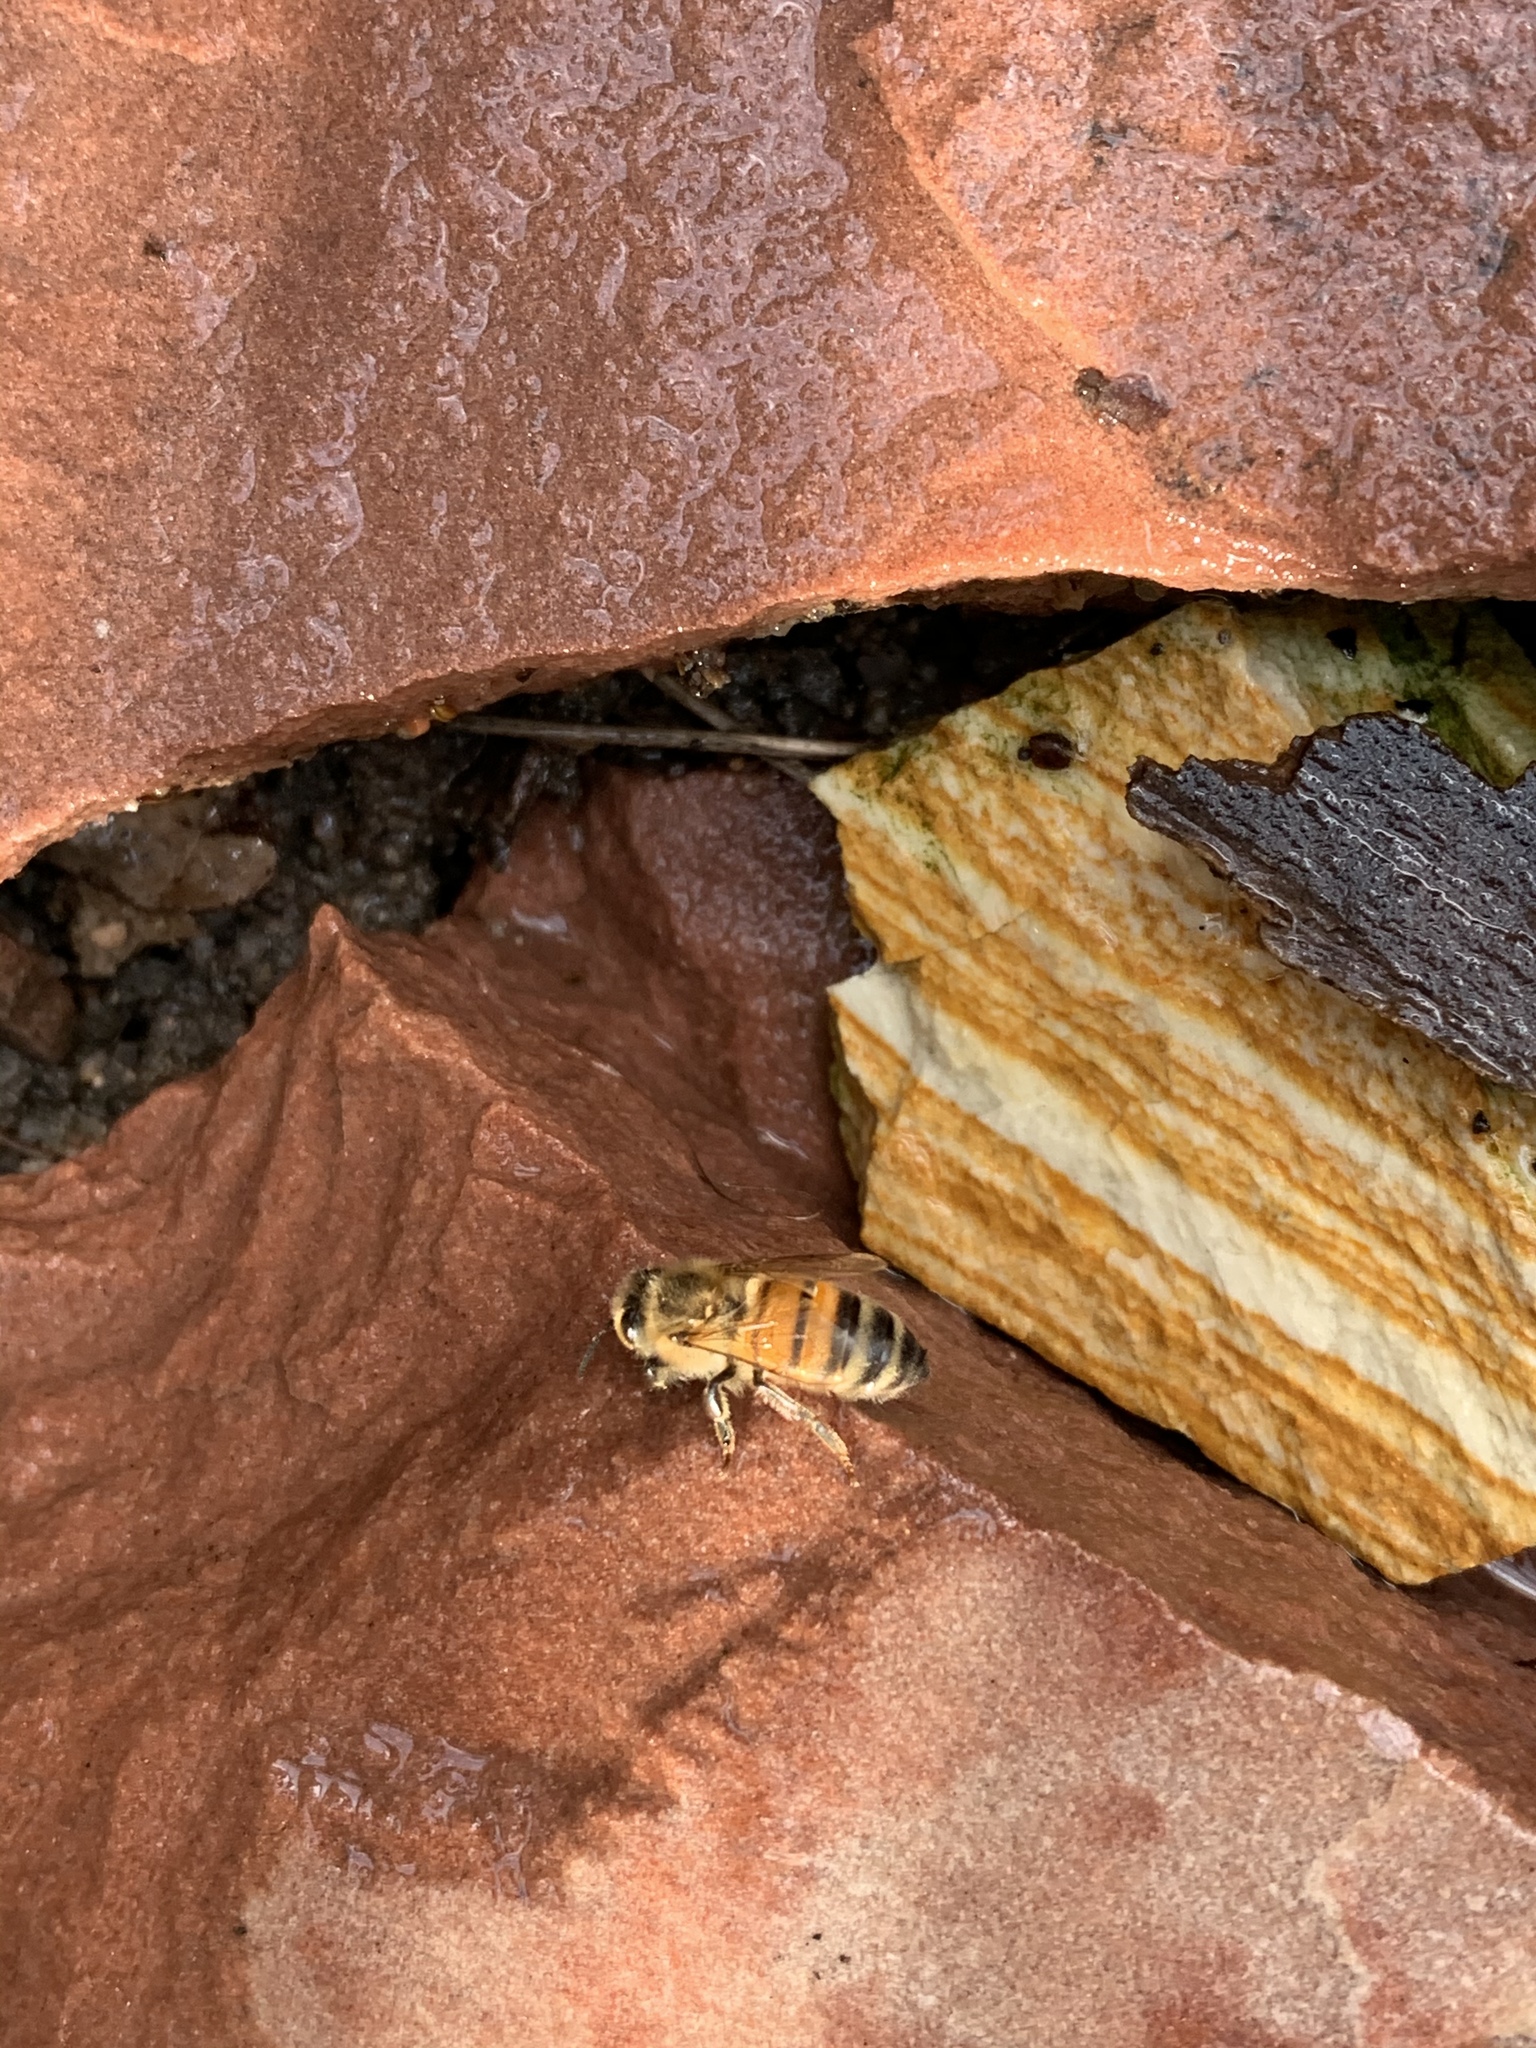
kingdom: Animalia
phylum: Arthropoda
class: Insecta
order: Hymenoptera
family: Apidae
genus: Apis
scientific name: Apis mellifera
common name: Honey bee
